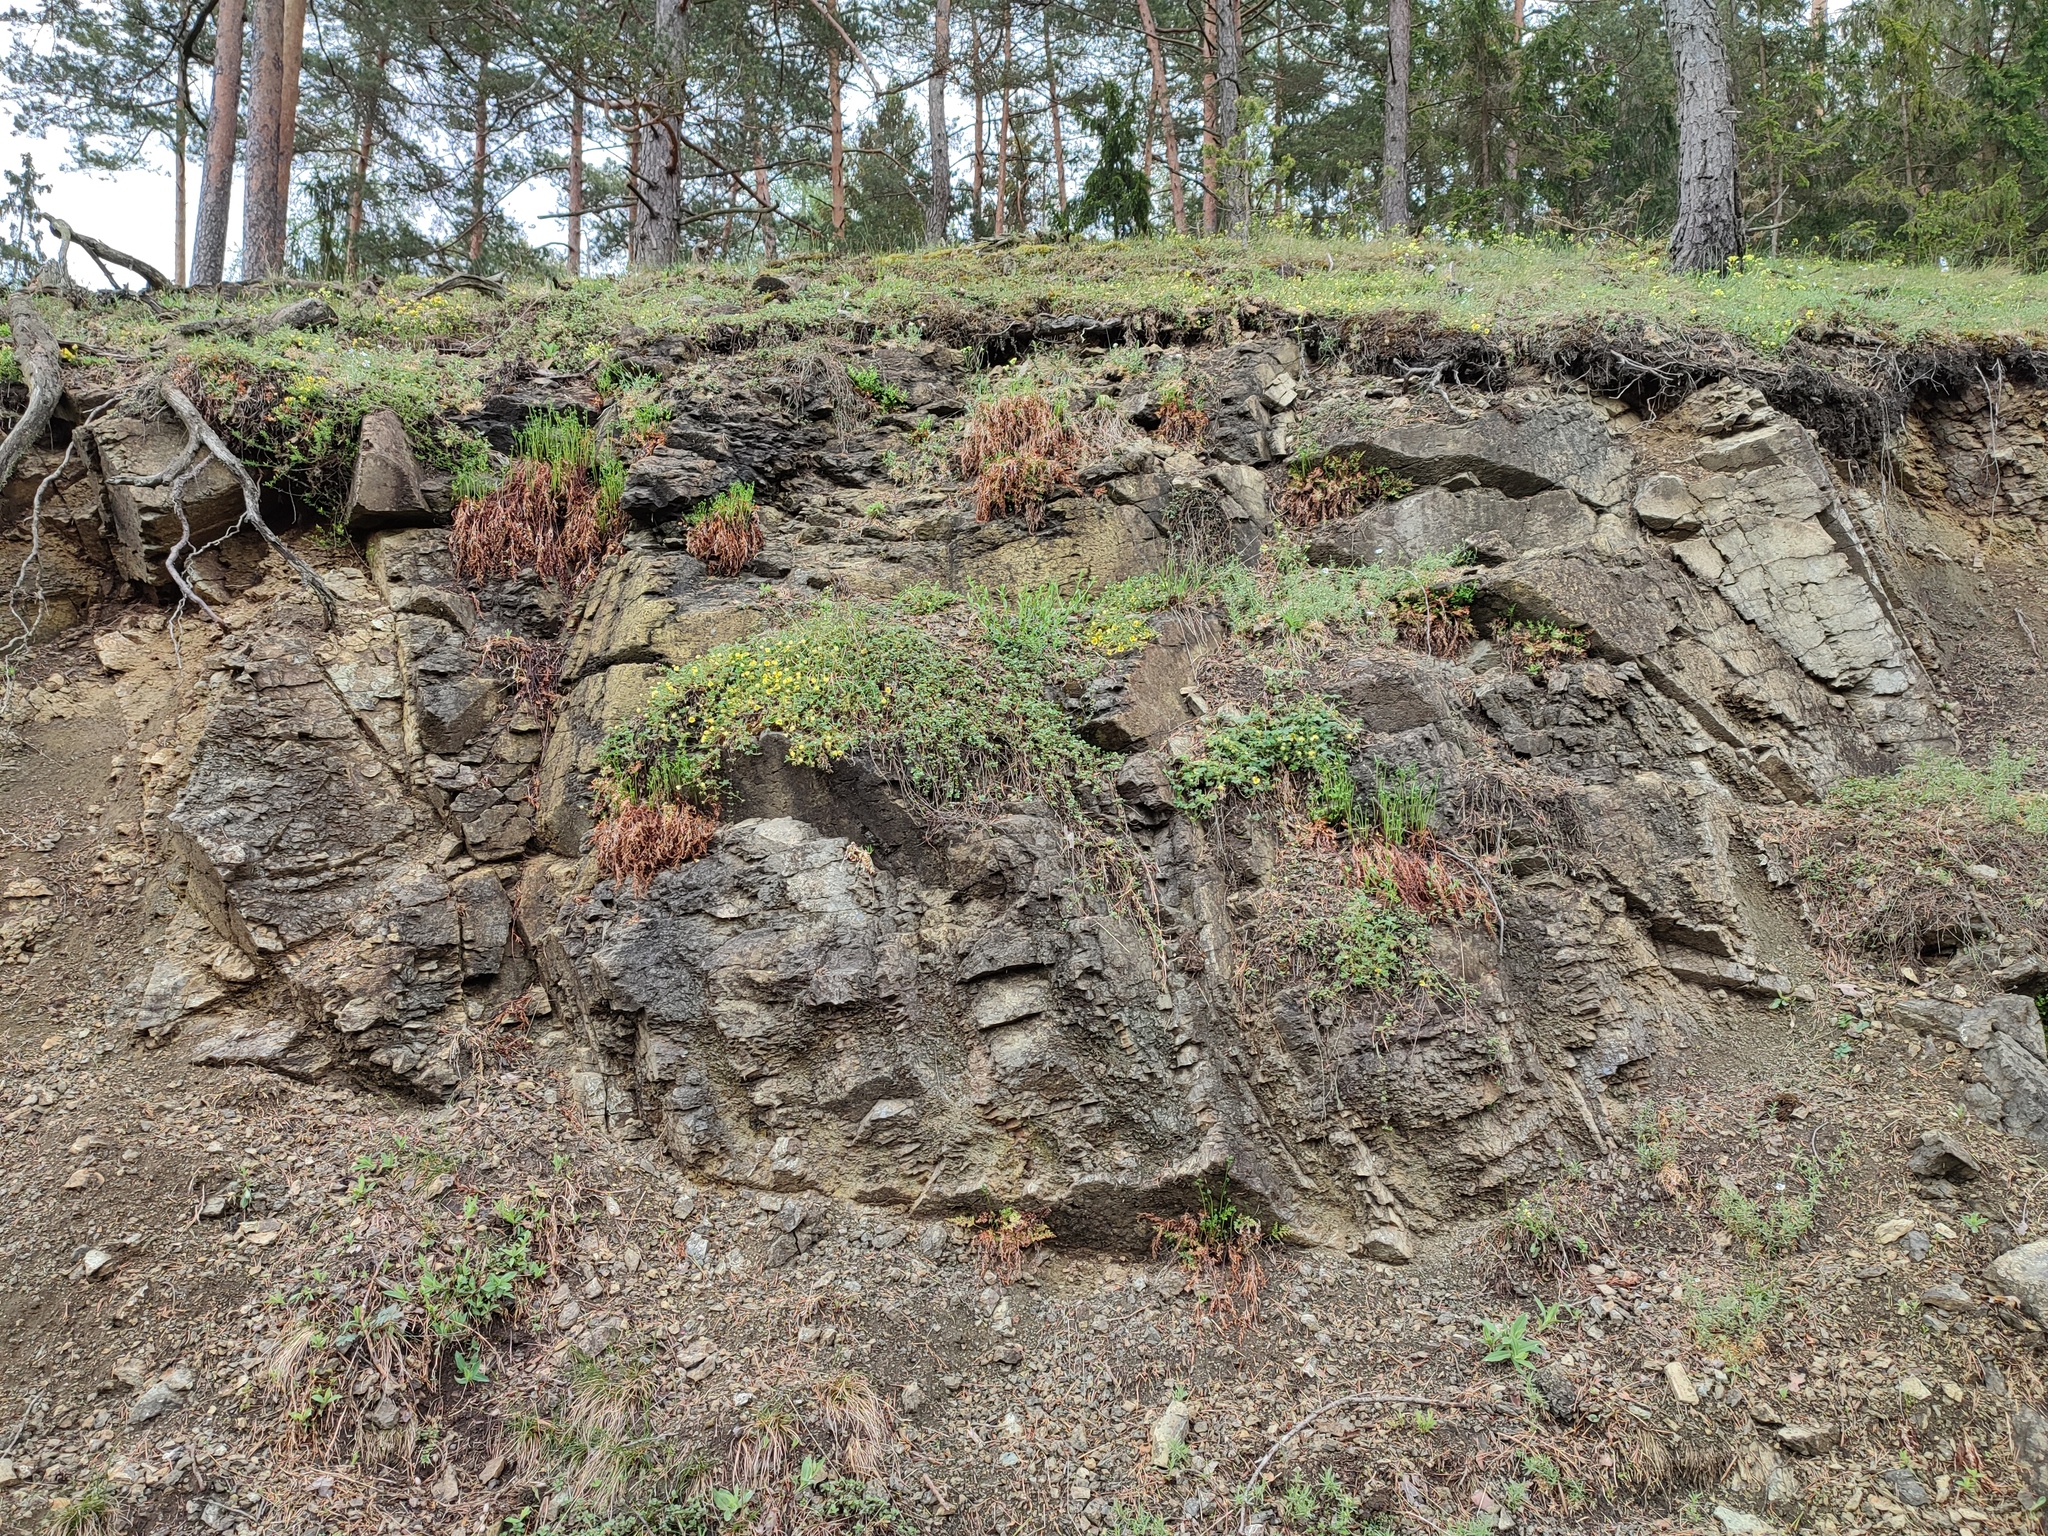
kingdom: Plantae
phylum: Tracheophyta
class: Polypodiopsida
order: Polypodiales
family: Aspleniaceae
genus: Asplenium
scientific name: Asplenium cuneifolium
